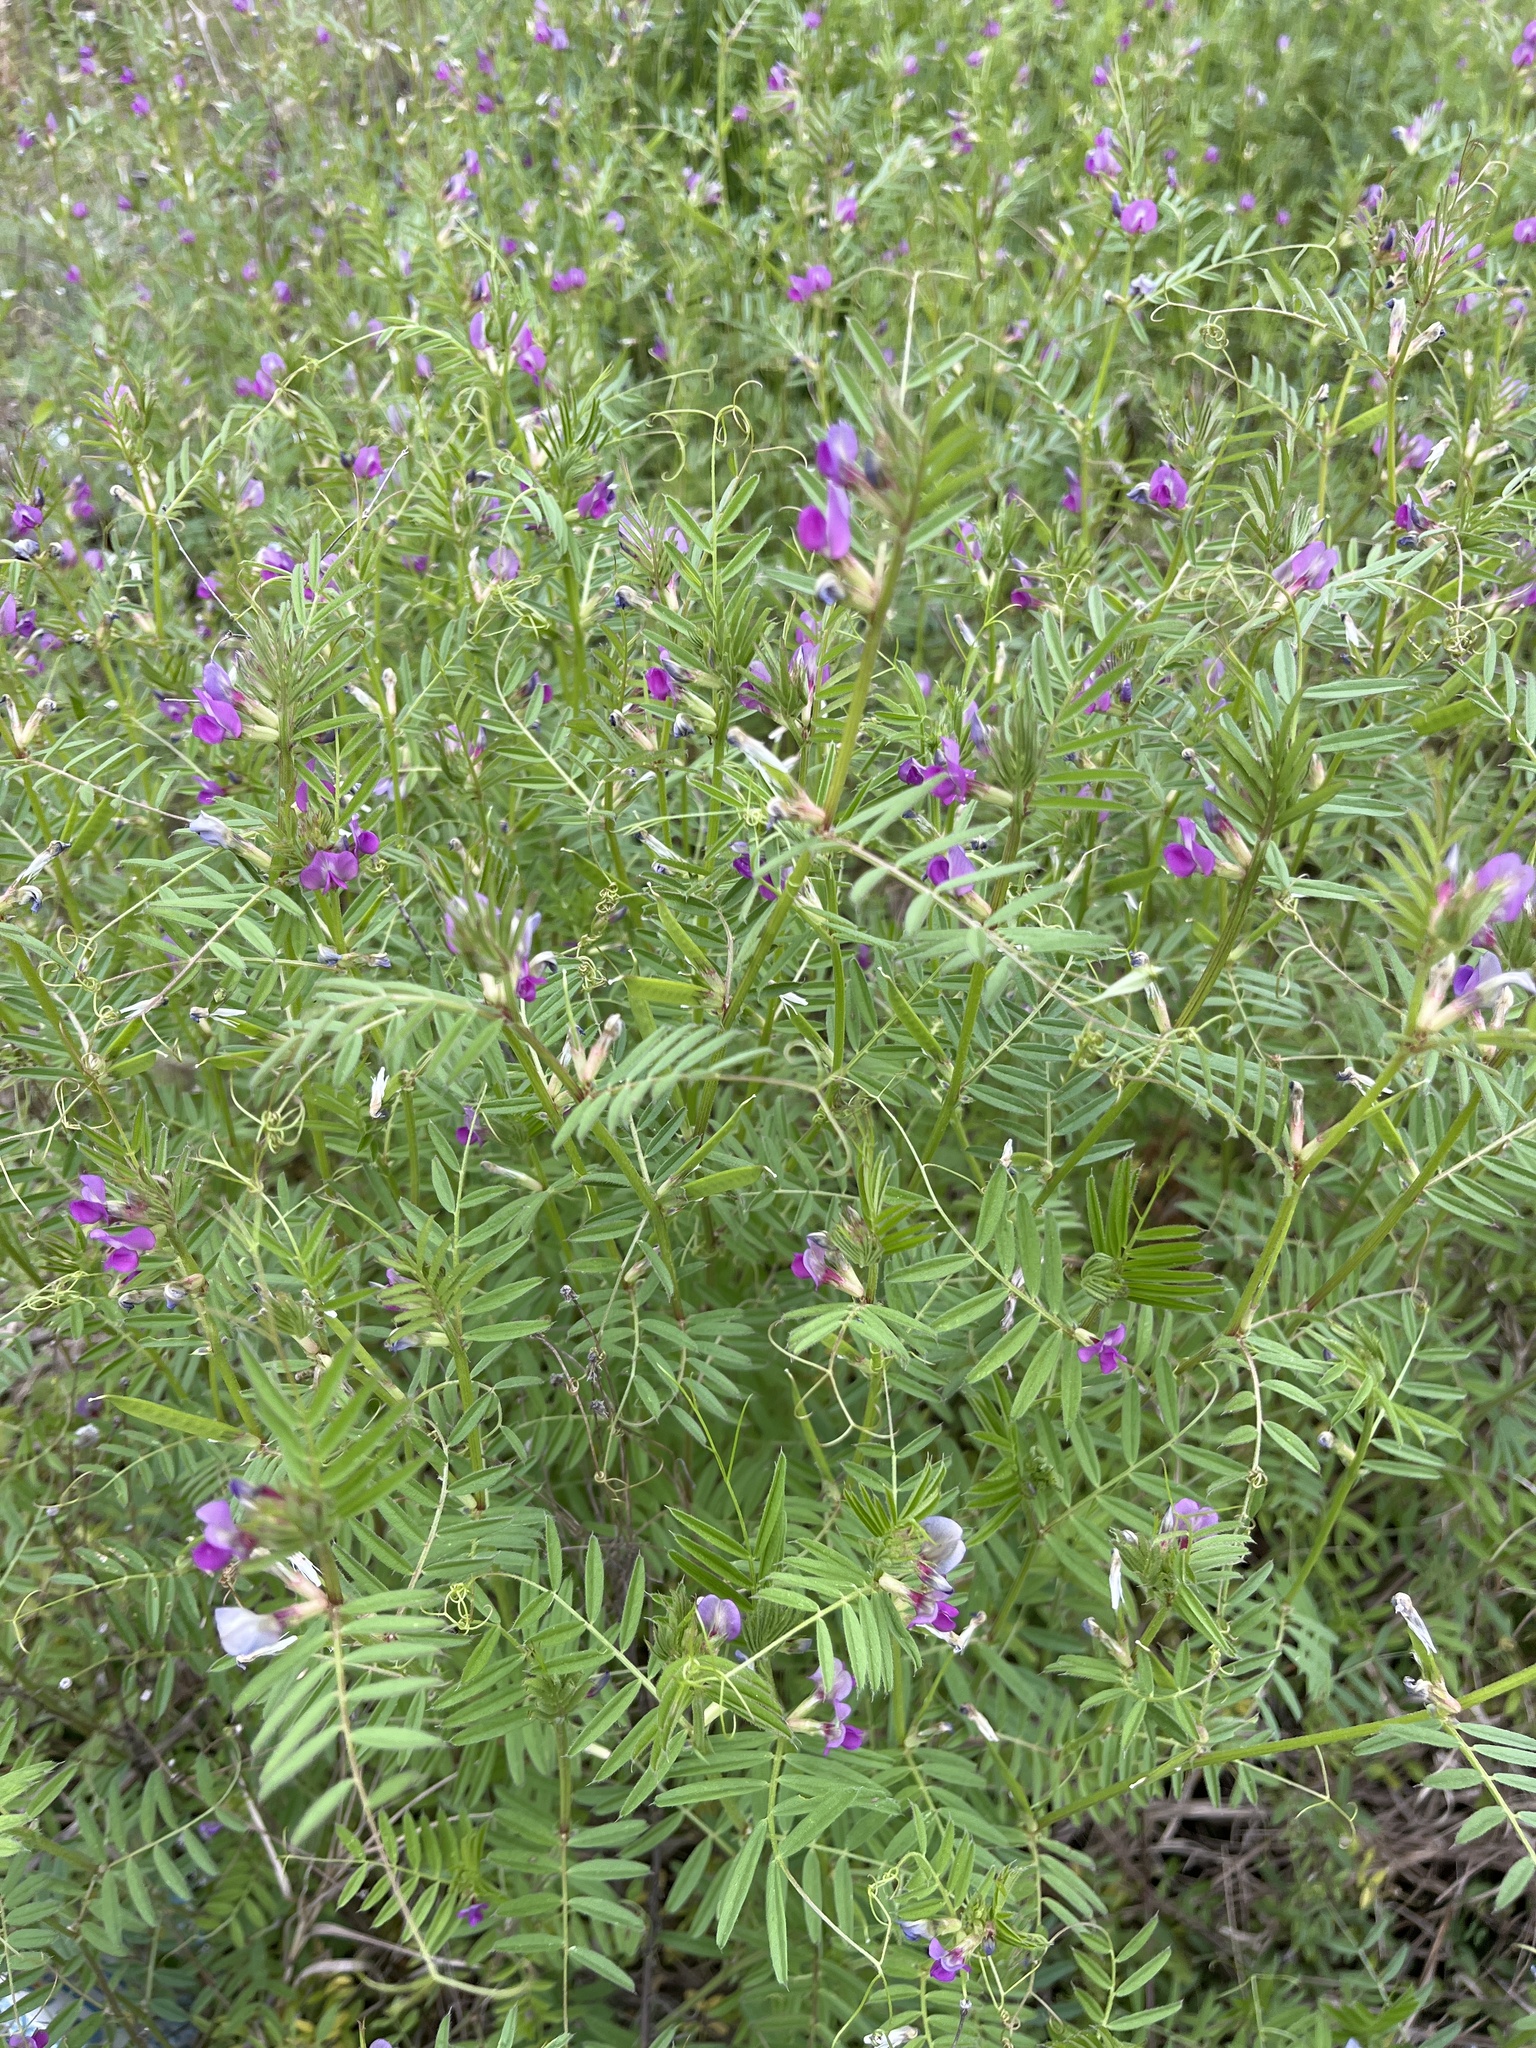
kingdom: Plantae
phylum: Tracheophyta
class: Magnoliopsida
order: Fabales
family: Fabaceae
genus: Vicia
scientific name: Vicia sativa
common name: Garden vetch
